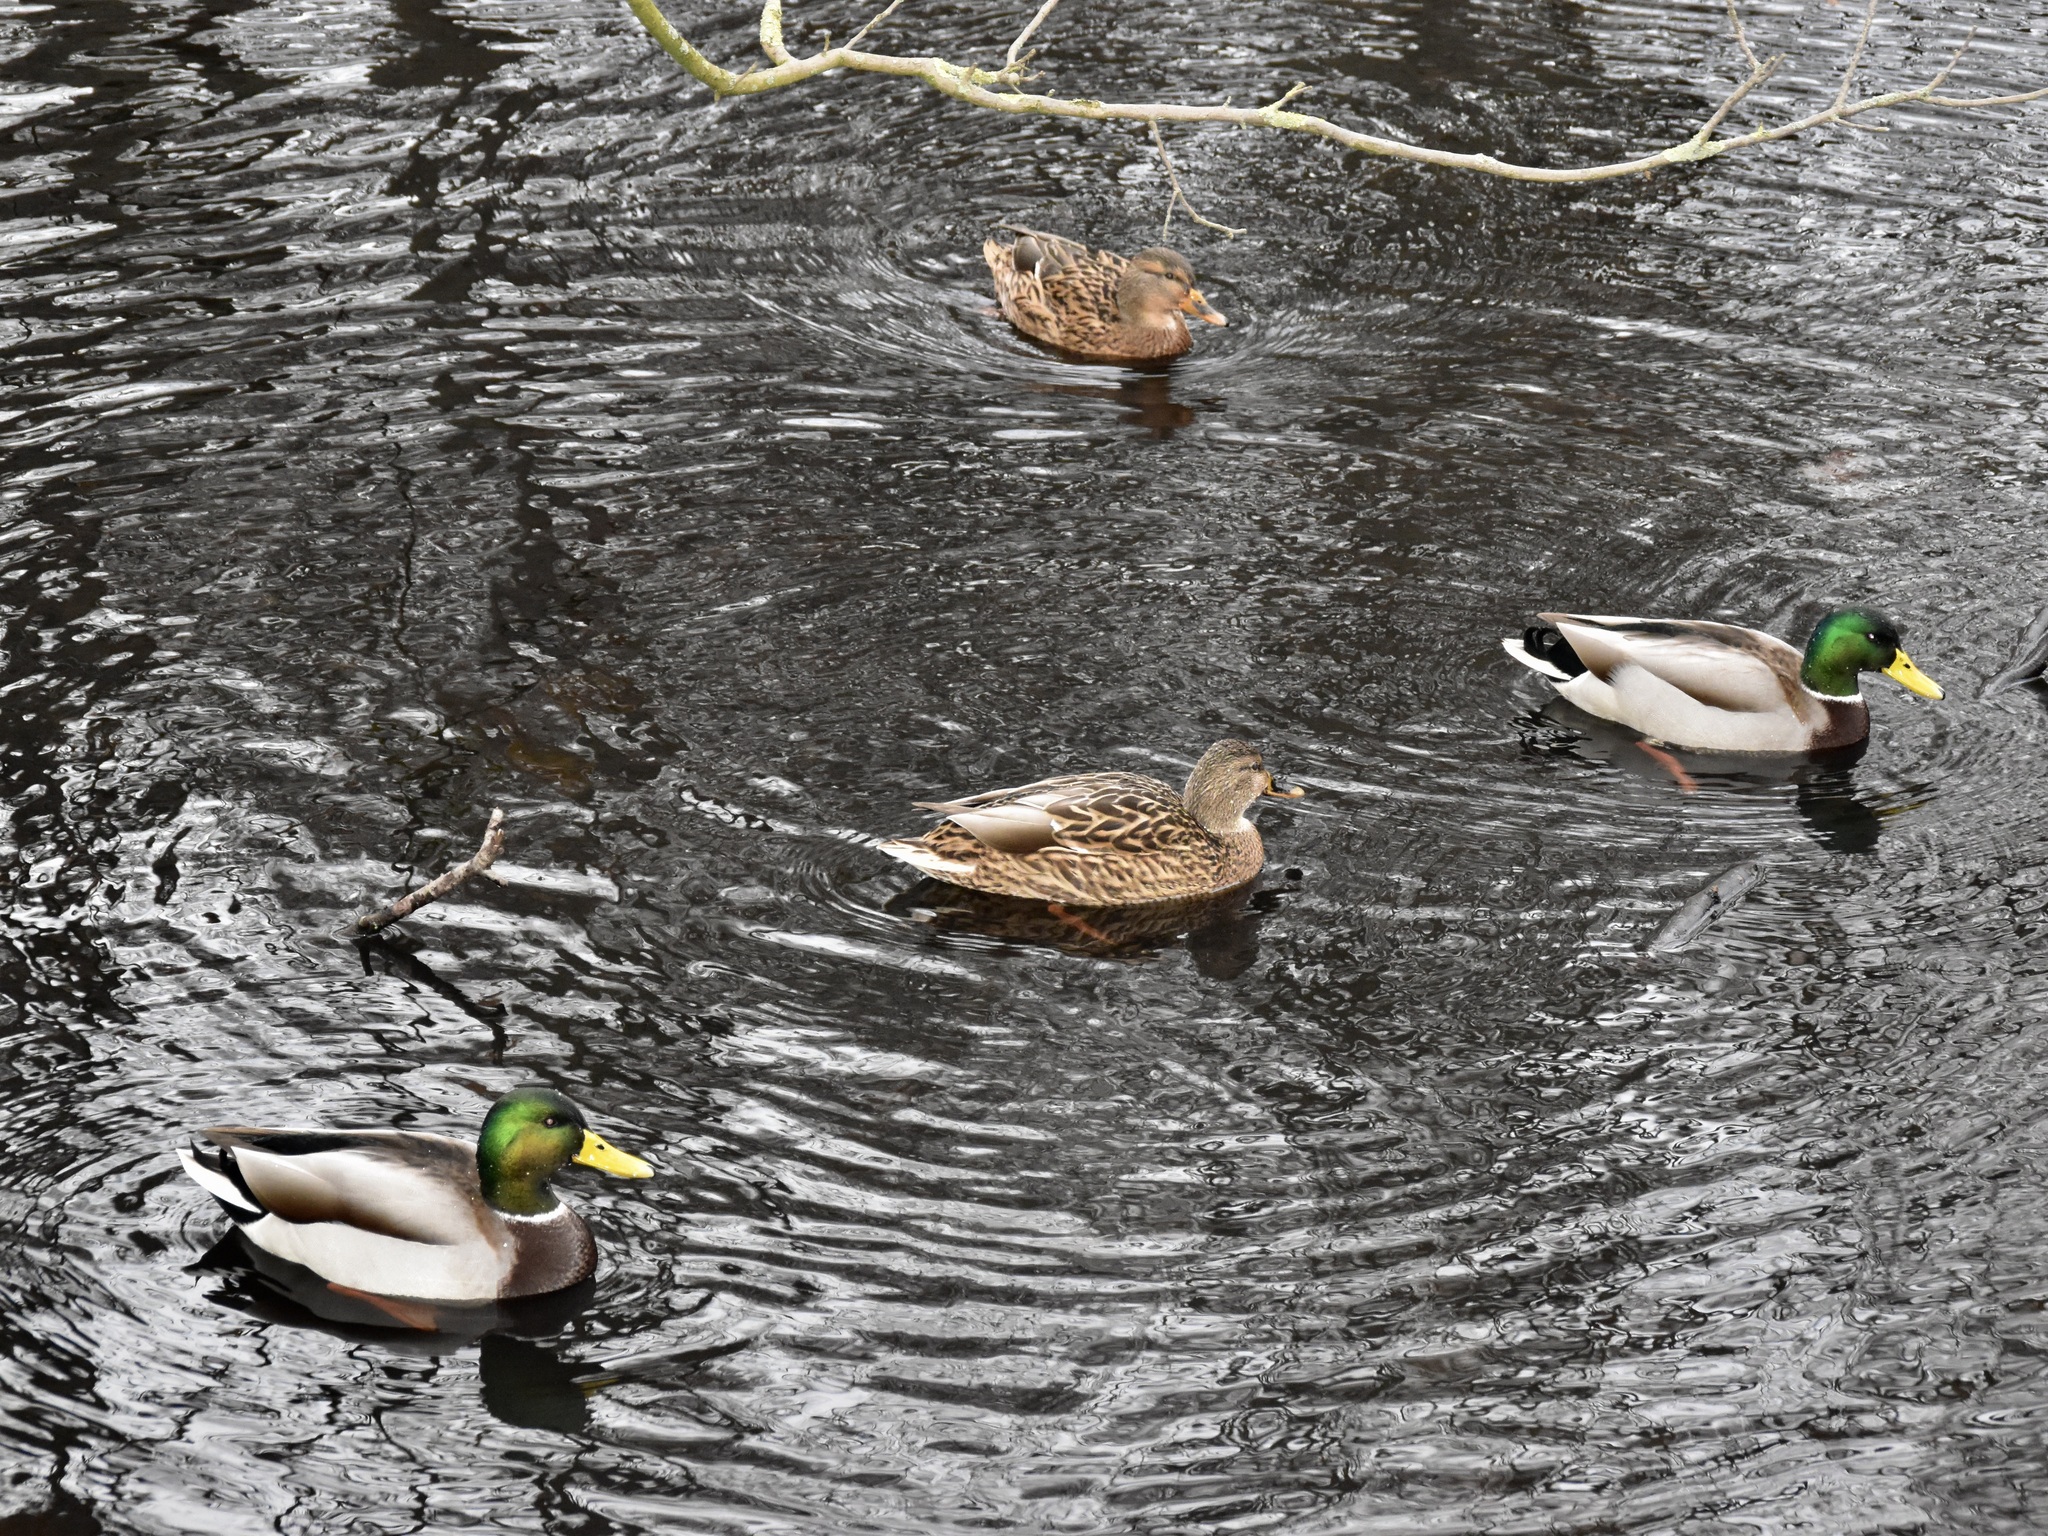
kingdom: Animalia
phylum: Chordata
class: Aves
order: Anseriformes
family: Anatidae
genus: Anas
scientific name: Anas platyrhynchos
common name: Mallard
